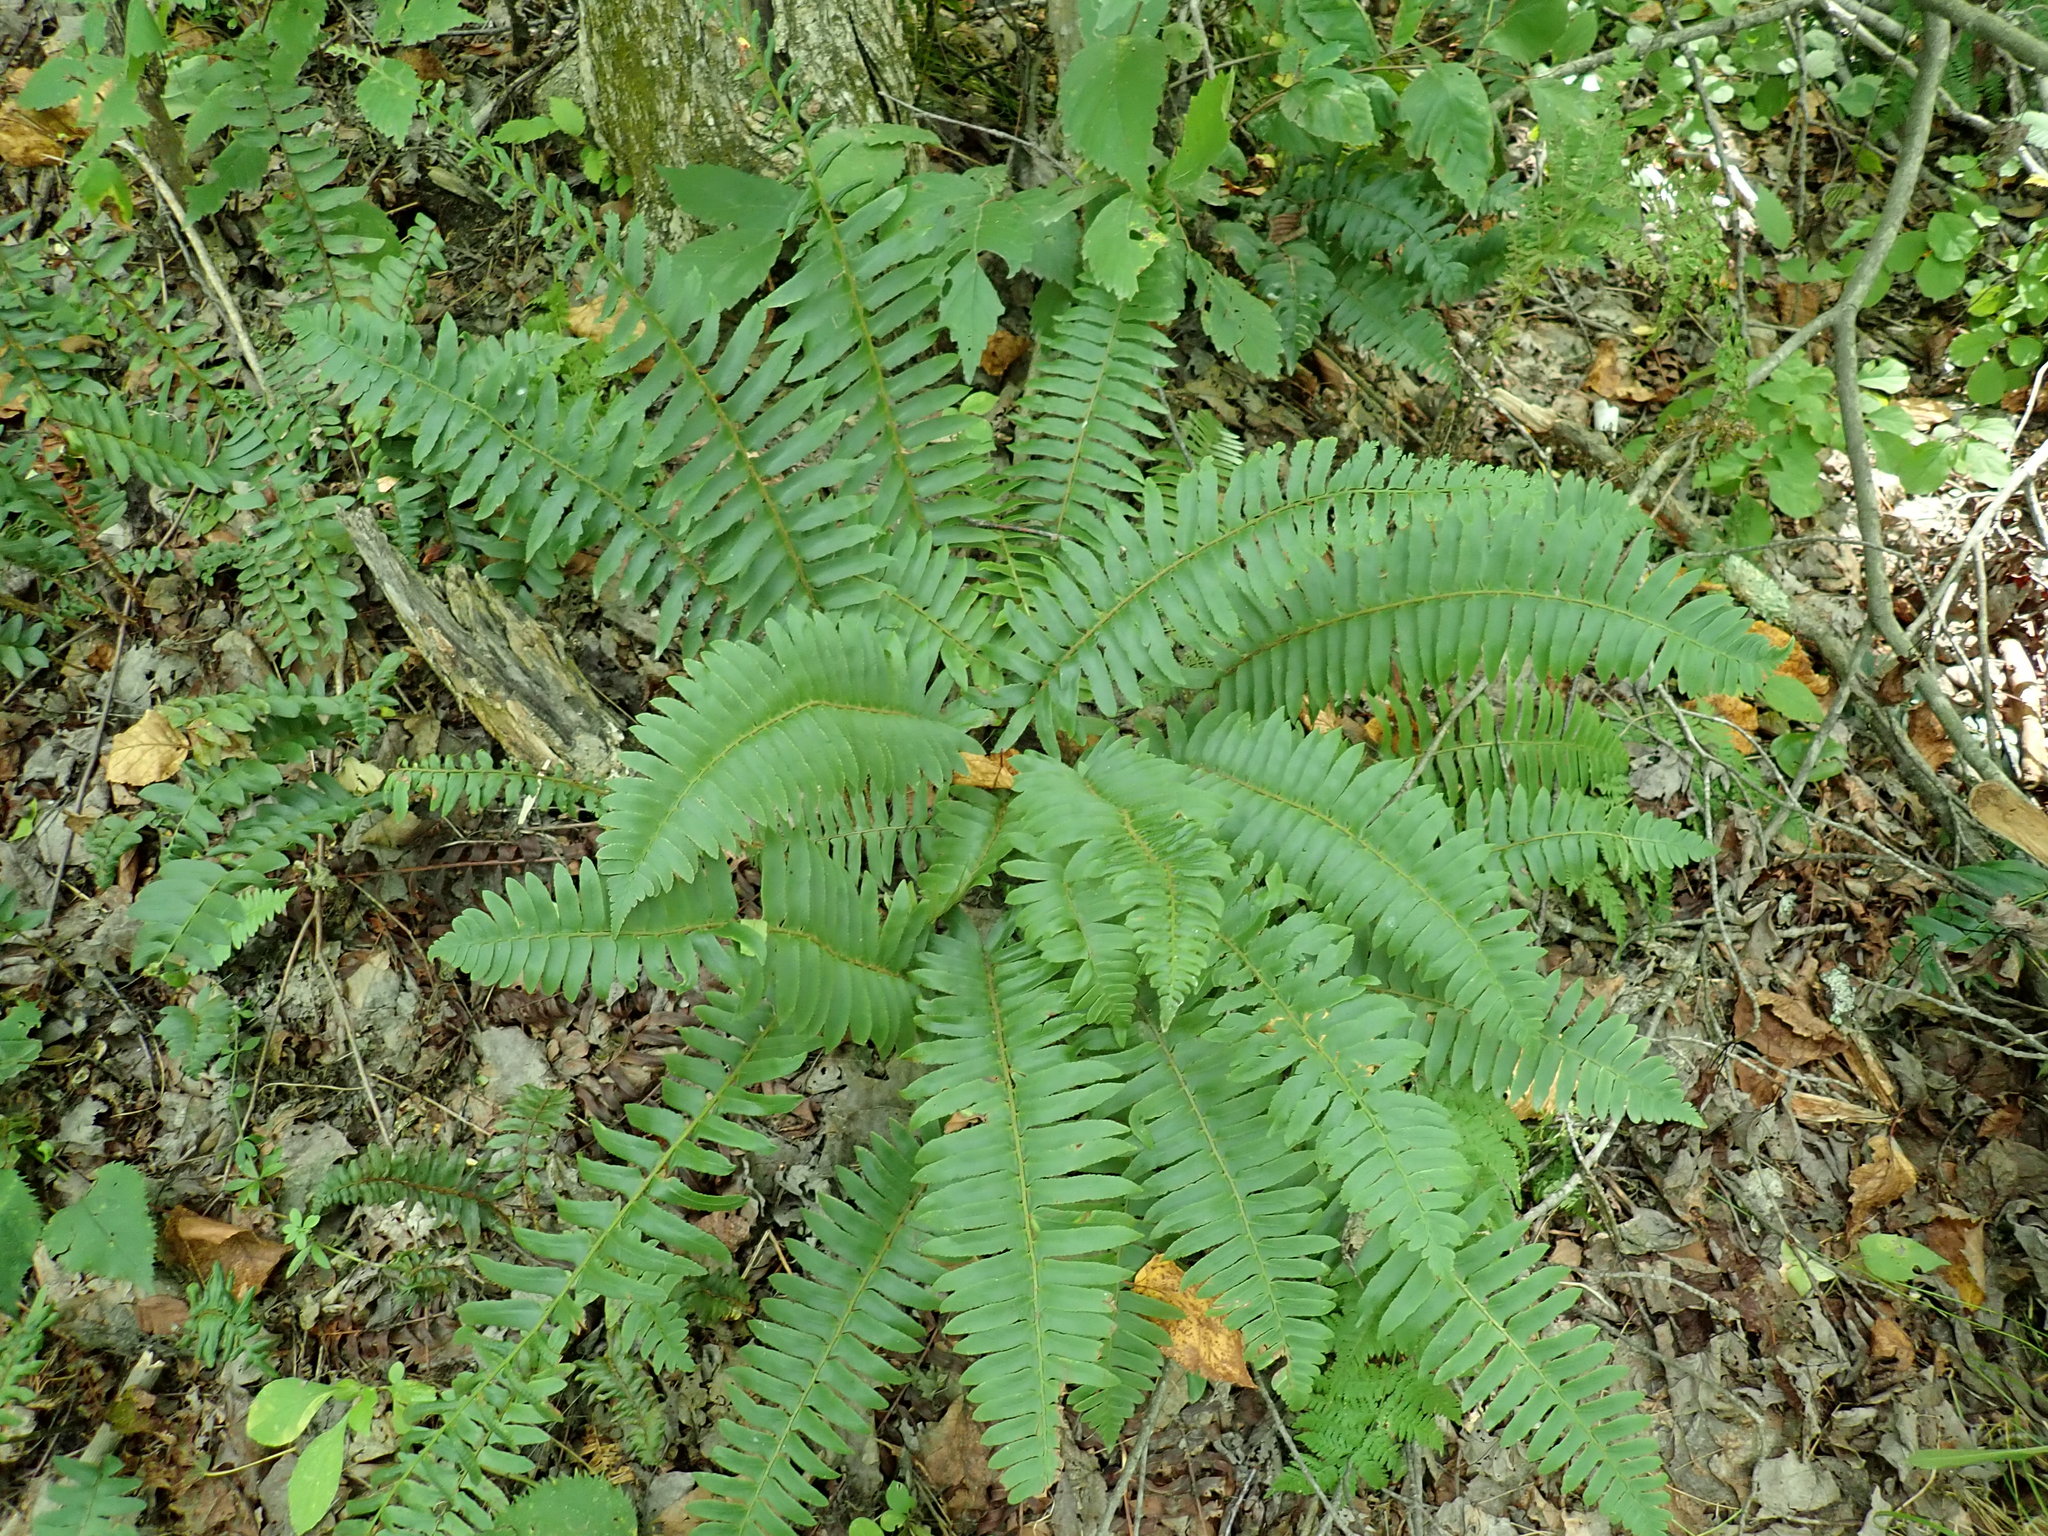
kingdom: Plantae
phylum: Tracheophyta
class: Polypodiopsida
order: Polypodiales
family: Dryopteridaceae
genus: Polystichum
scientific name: Polystichum acrostichoides
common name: Christmas fern
